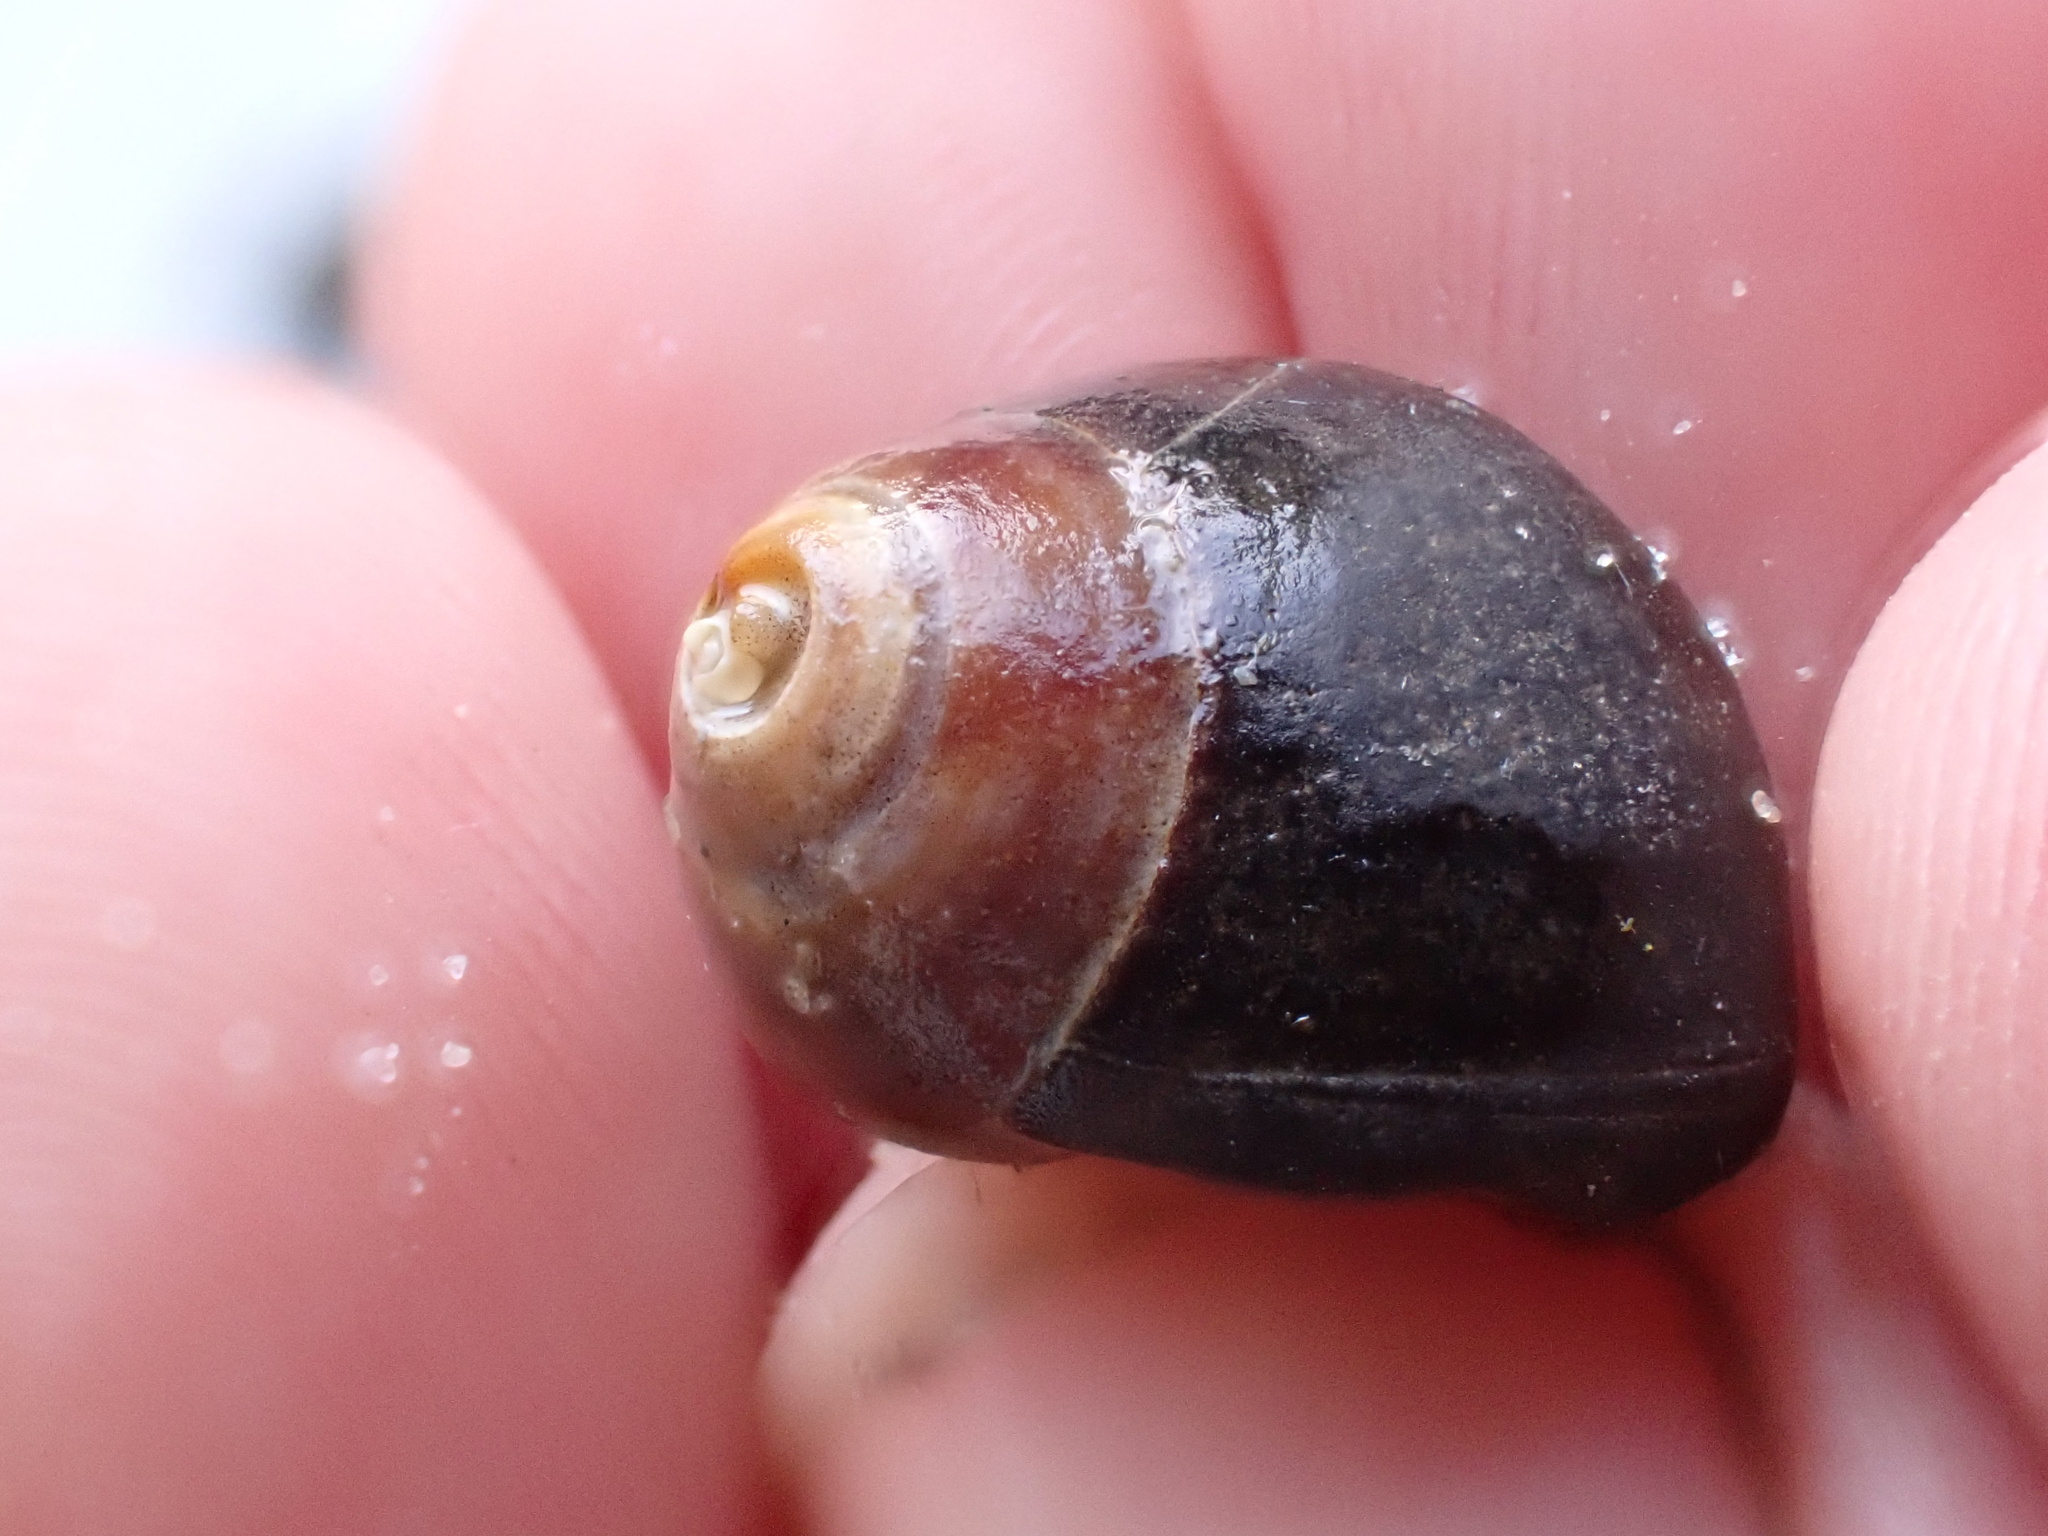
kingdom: Animalia
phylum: Mollusca
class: Gastropoda
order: Littorinimorpha
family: Littorinidae
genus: Littorina
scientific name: Littorina littorea
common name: Common periwinkle
